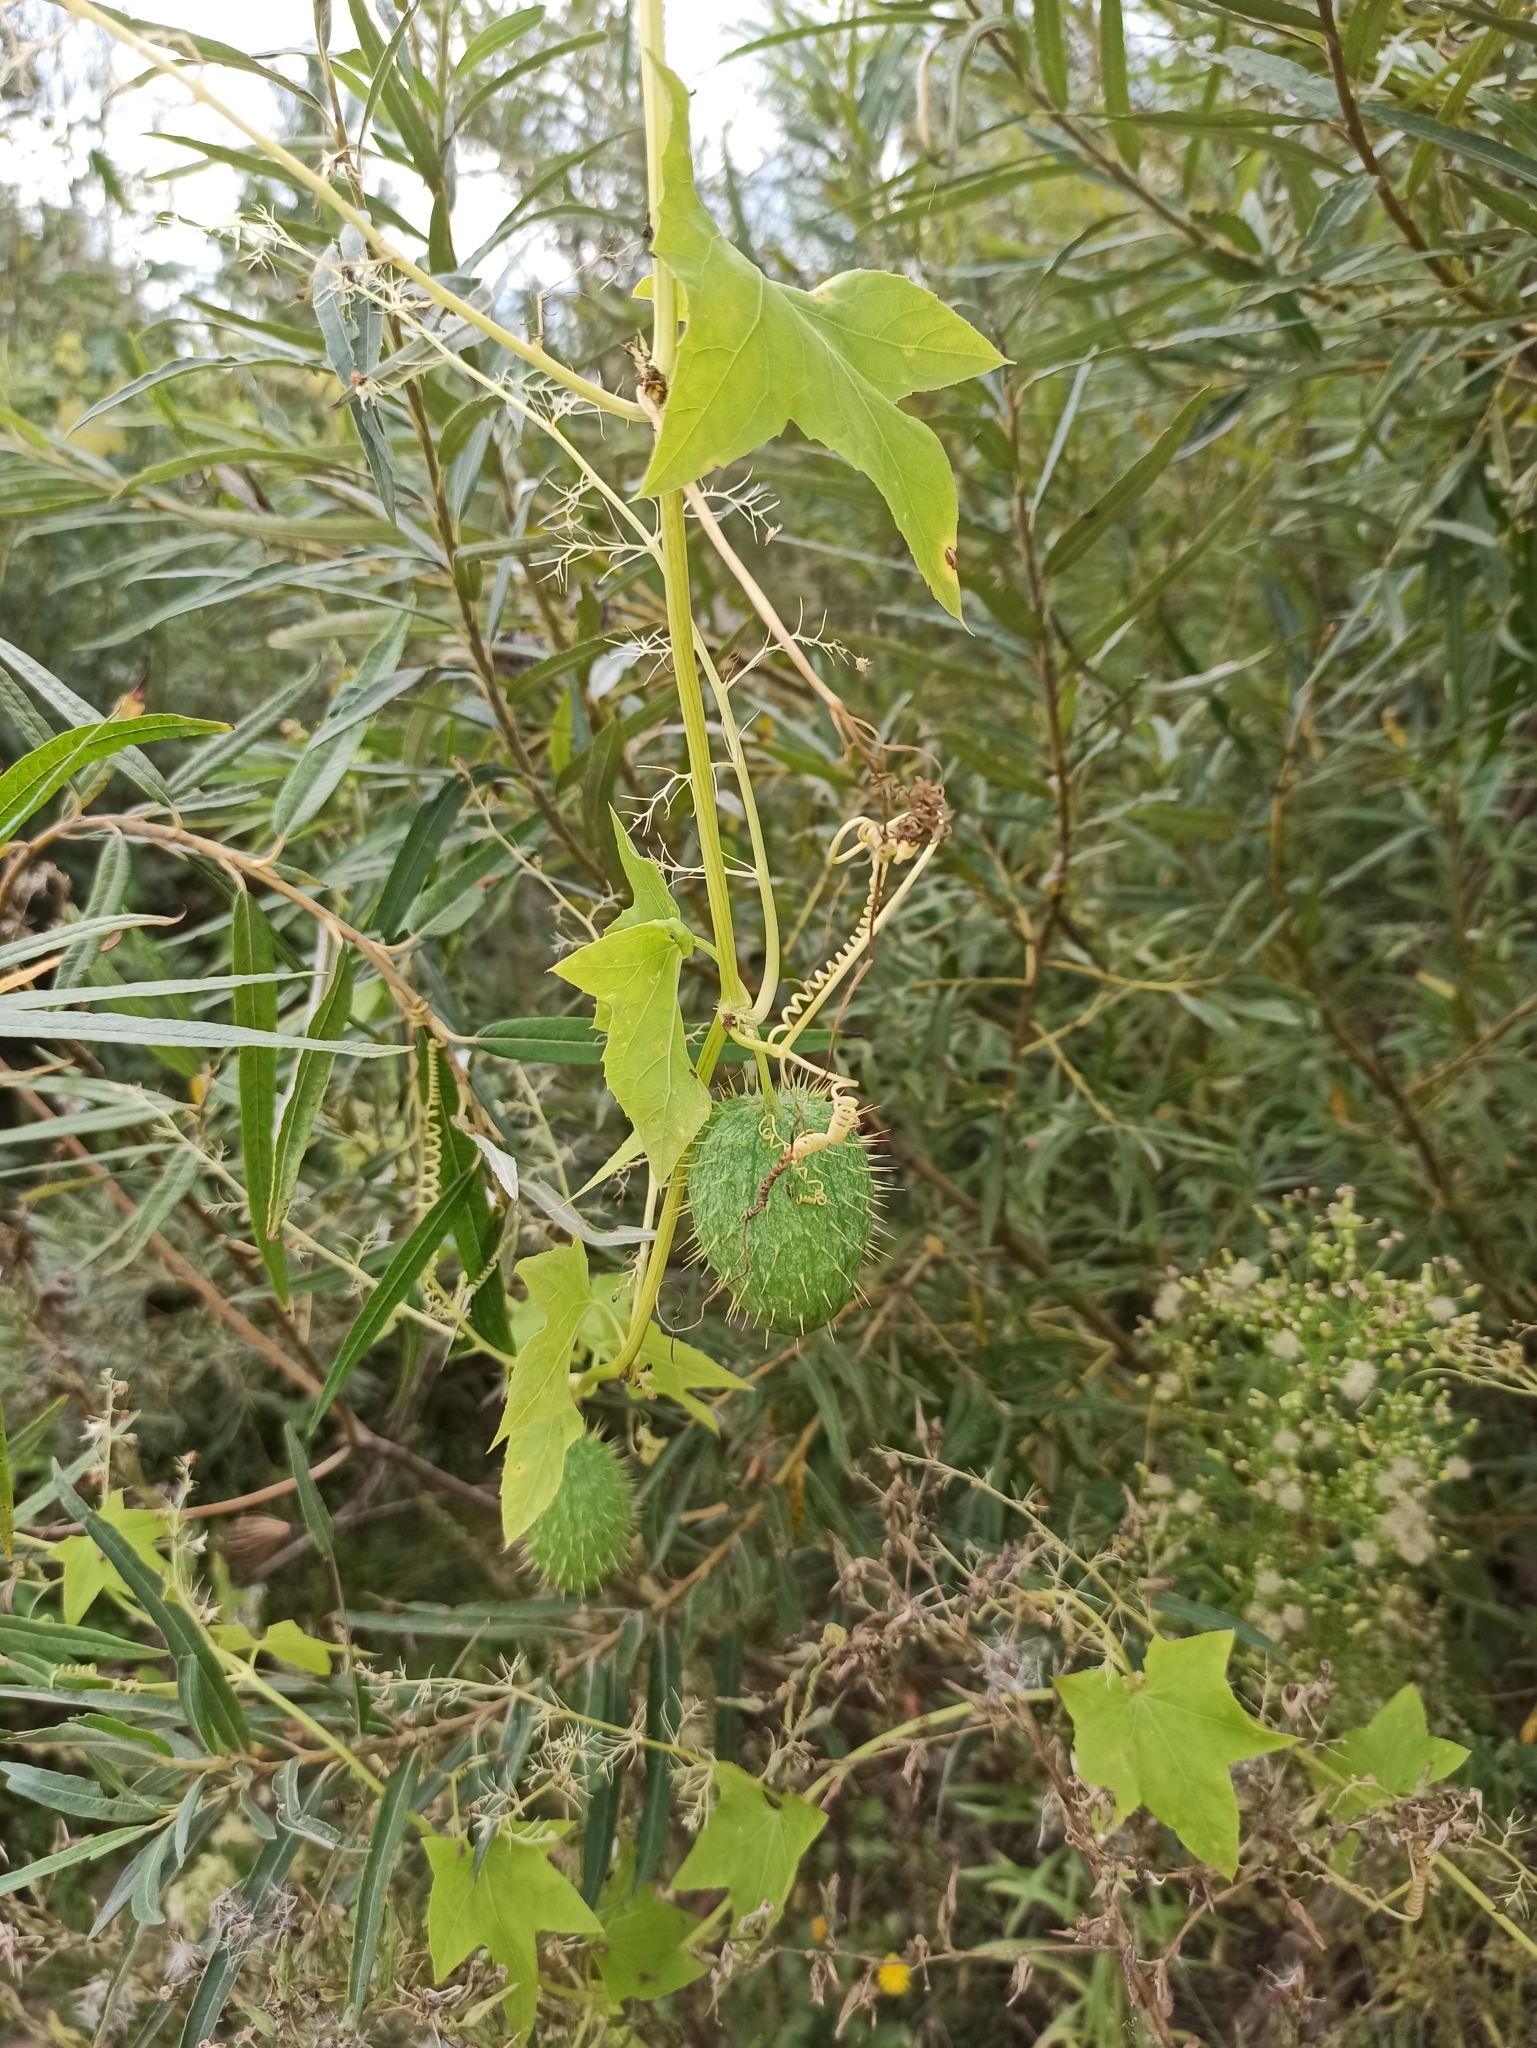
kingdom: Plantae
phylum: Tracheophyta
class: Magnoliopsida
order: Cucurbitales
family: Cucurbitaceae
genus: Echinocystis
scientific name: Echinocystis lobata
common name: Wild cucumber
